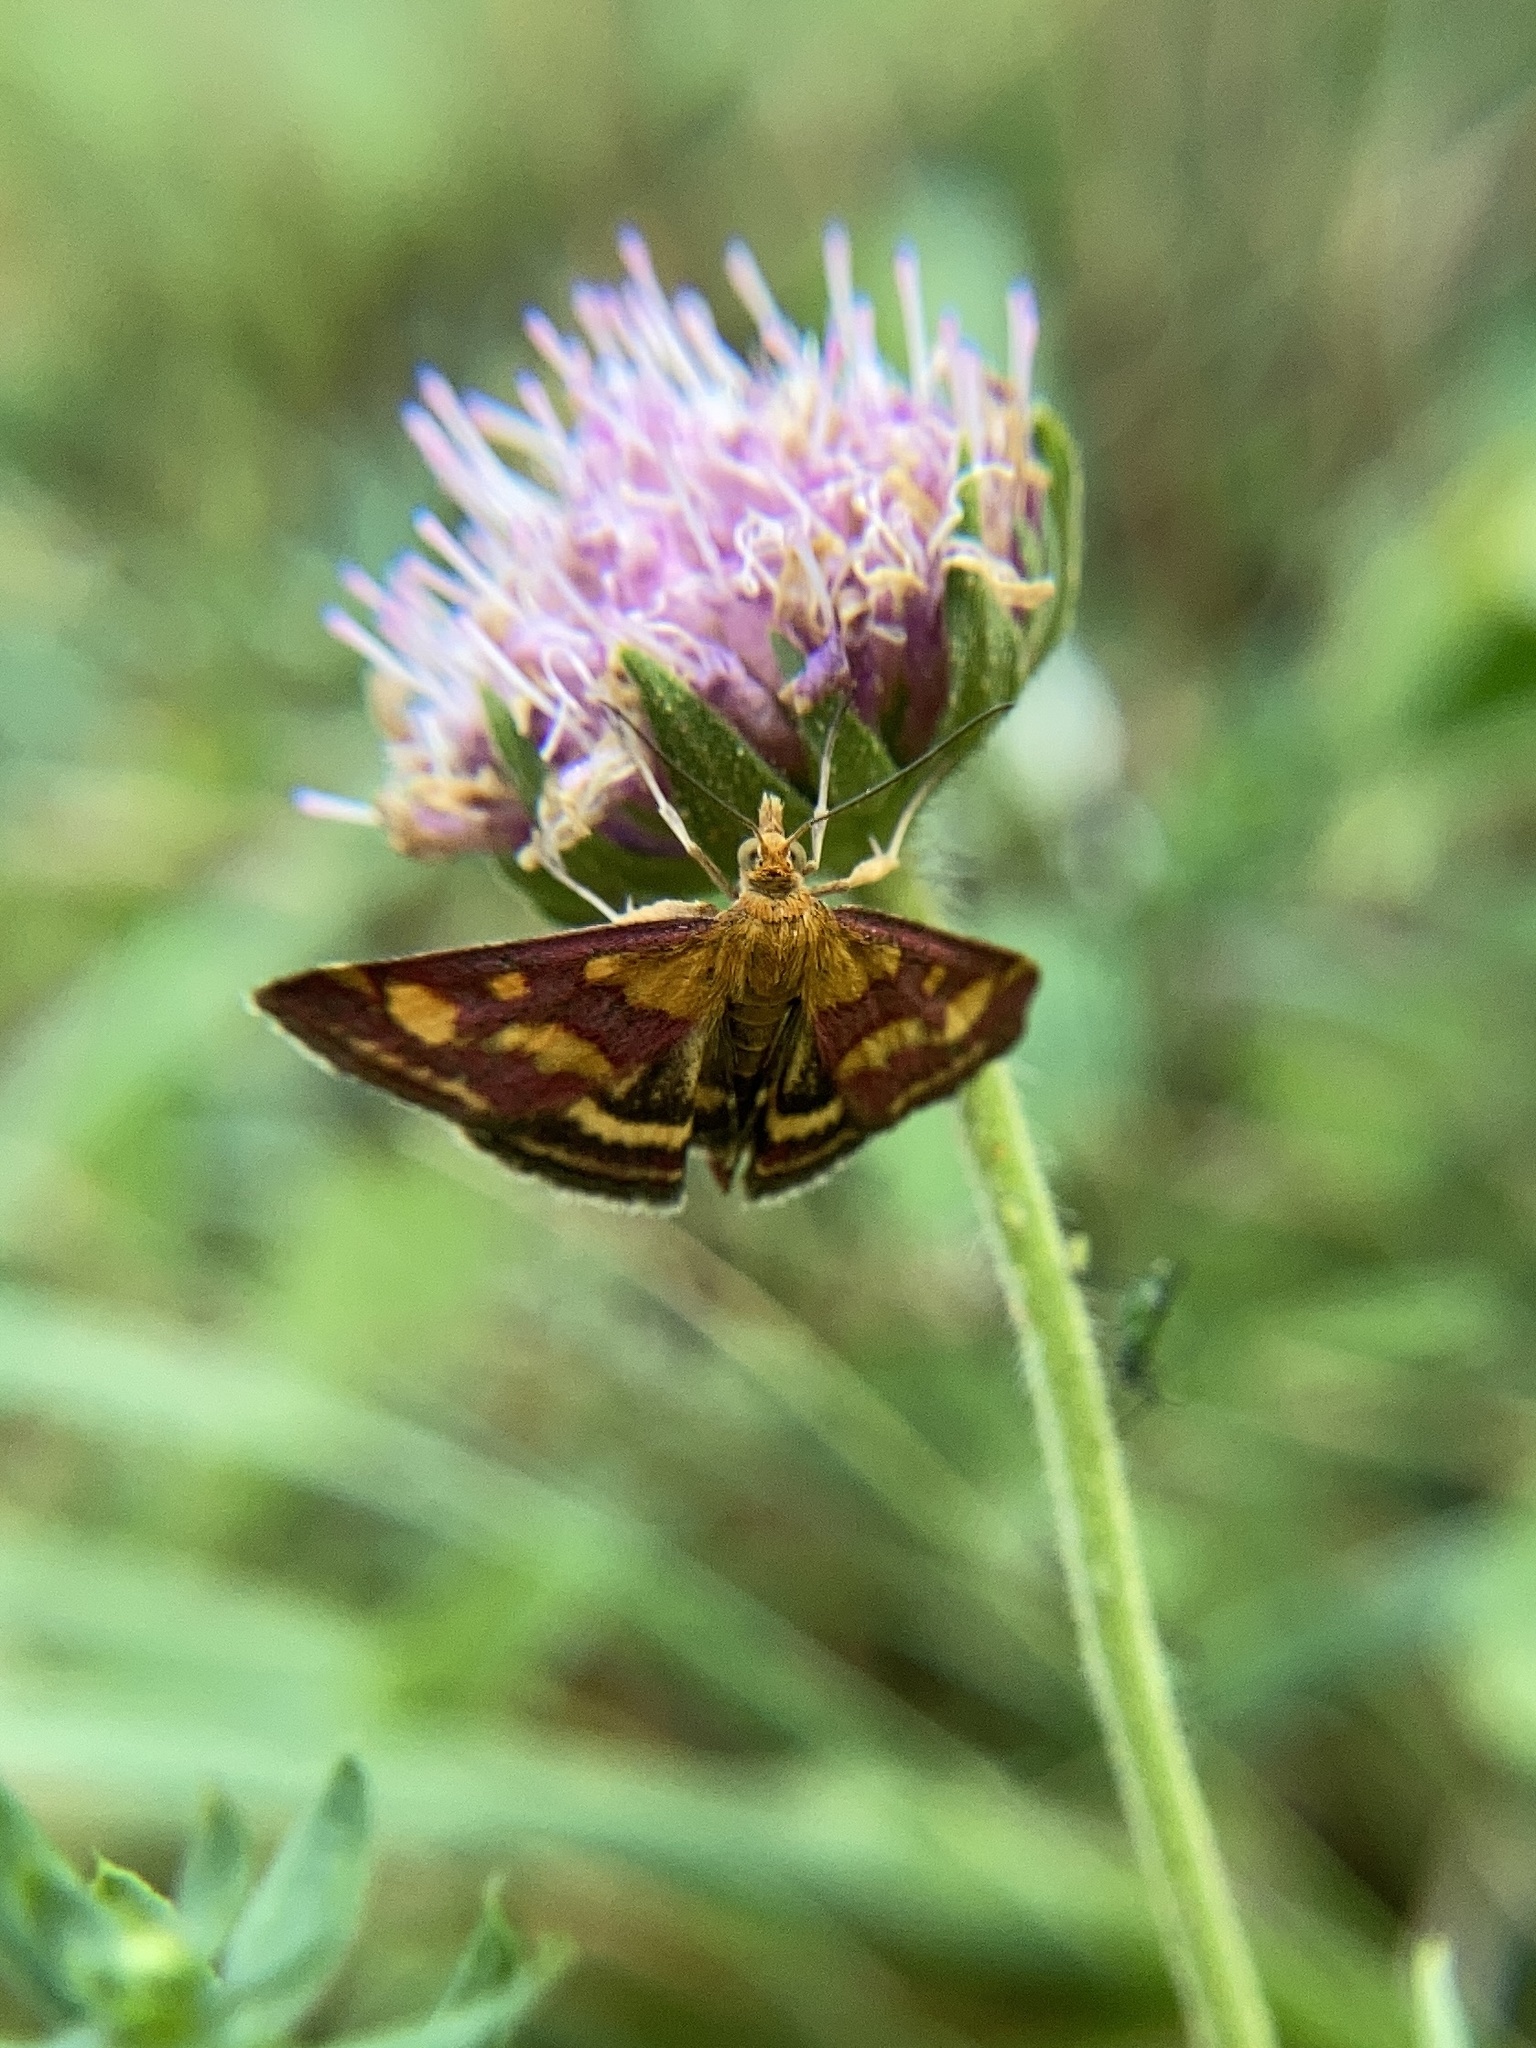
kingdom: Animalia
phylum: Arthropoda
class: Insecta
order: Lepidoptera
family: Crambidae
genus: Pyrausta
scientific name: Pyrausta purpuralis
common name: Common purple & gold
